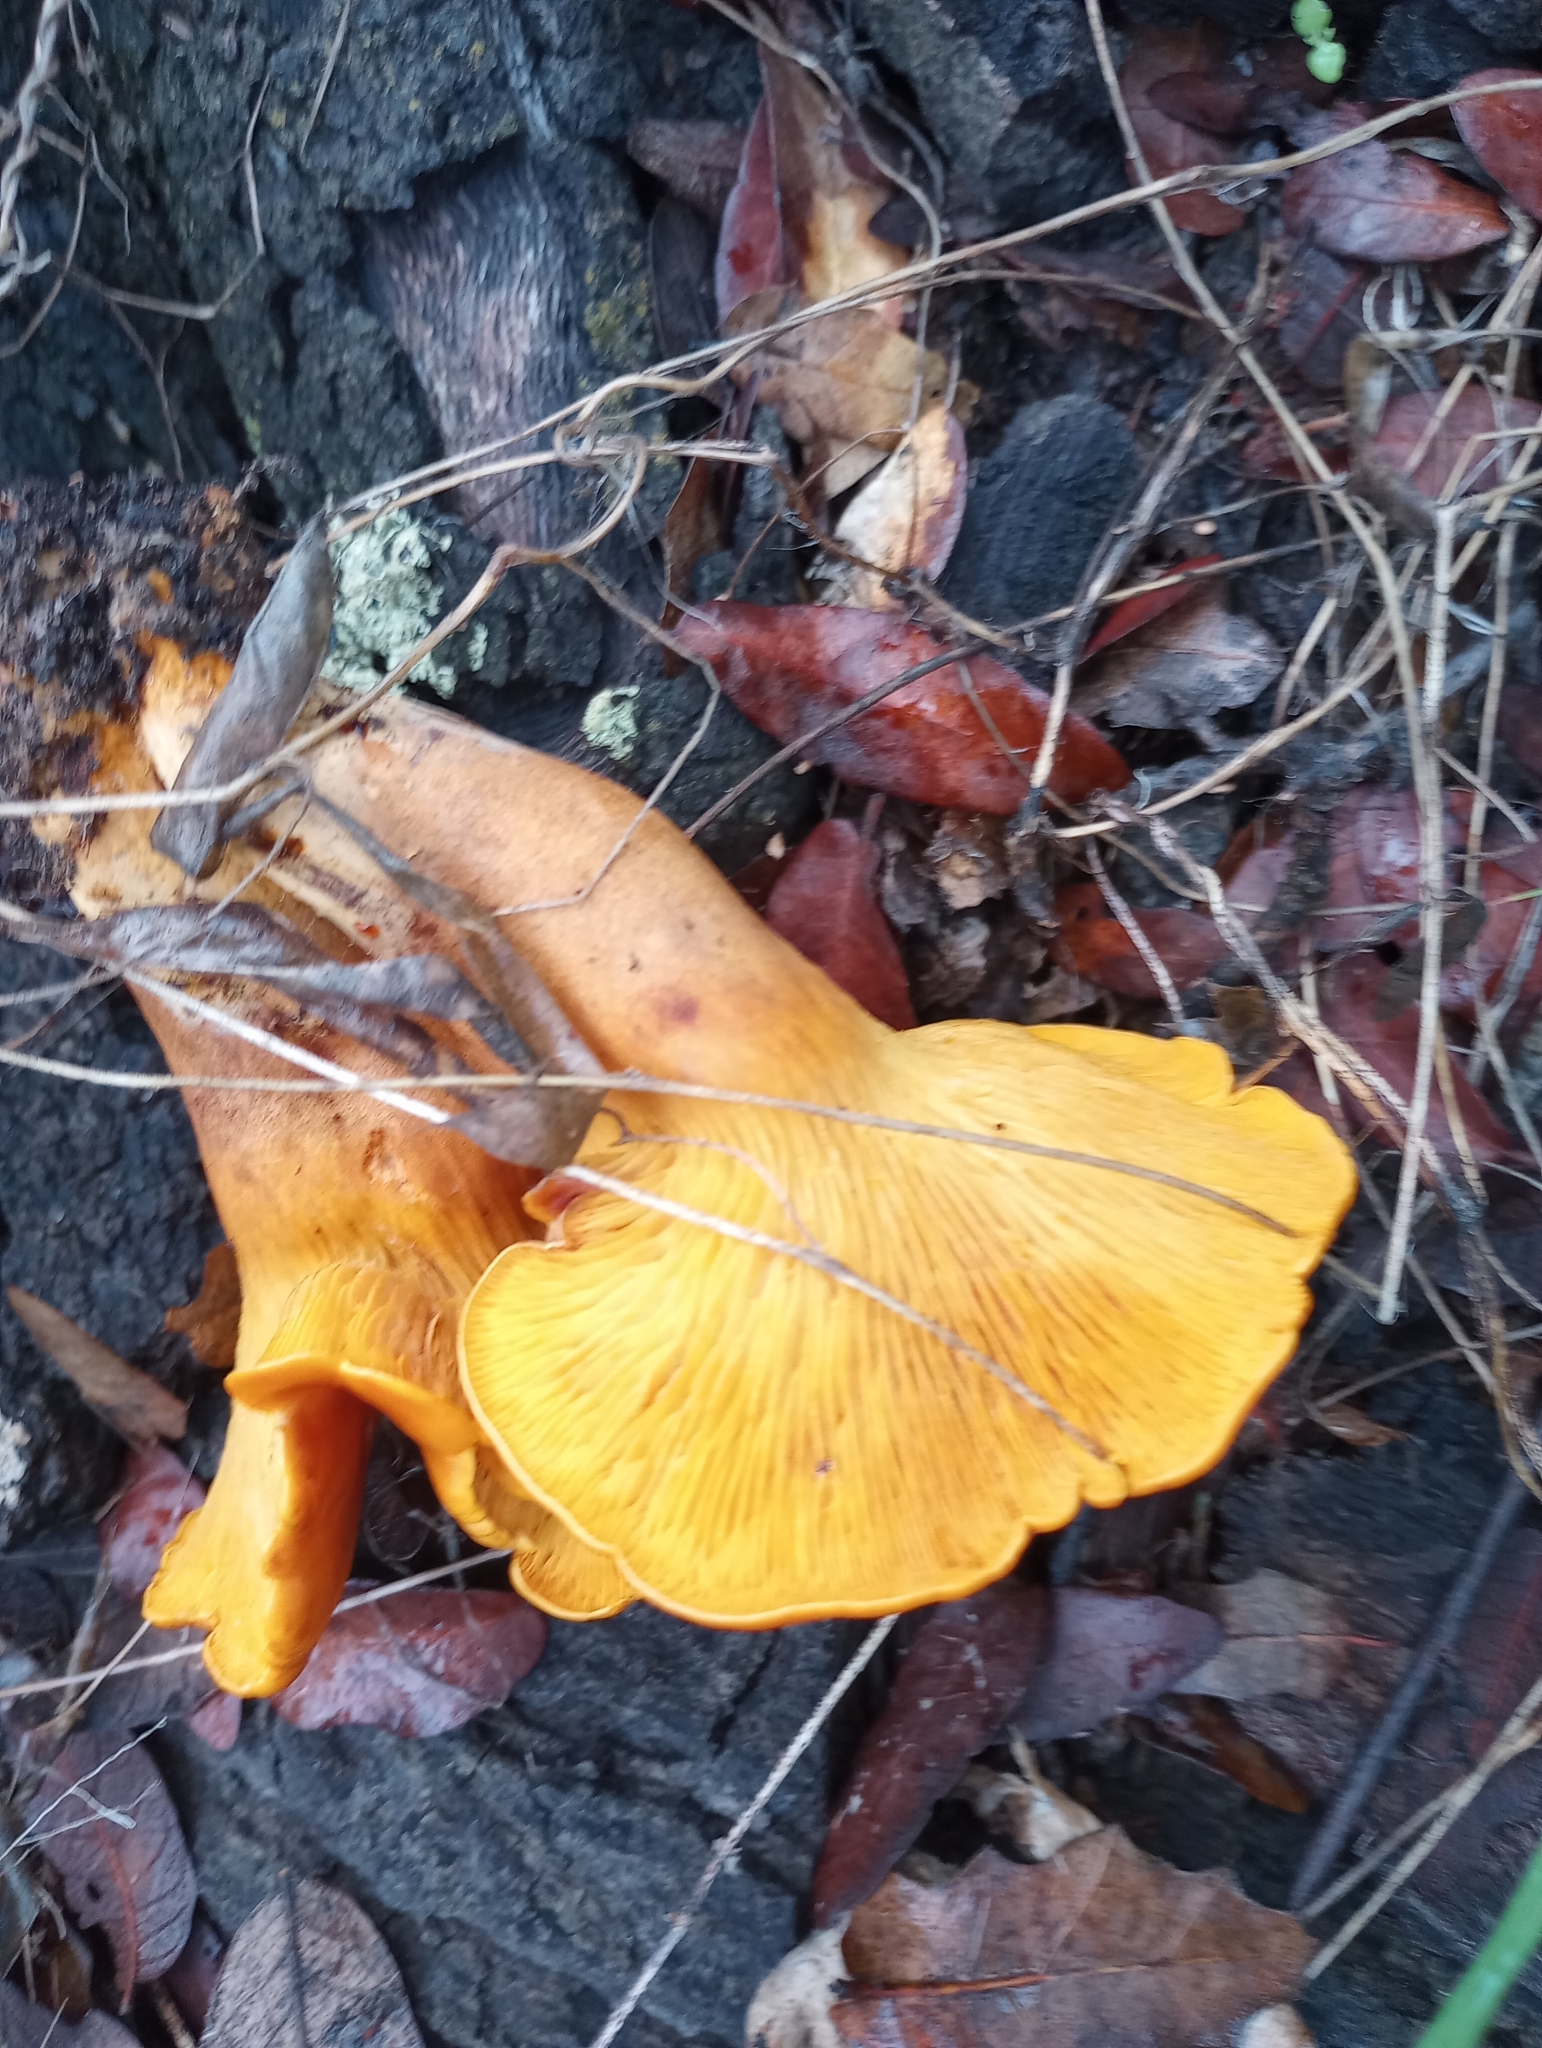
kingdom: Fungi
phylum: Basidiomycota
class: Agaricomycetes
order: Agaricales
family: Omphalotaceae
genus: Omphalotus
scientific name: Omphalotus subilludens
